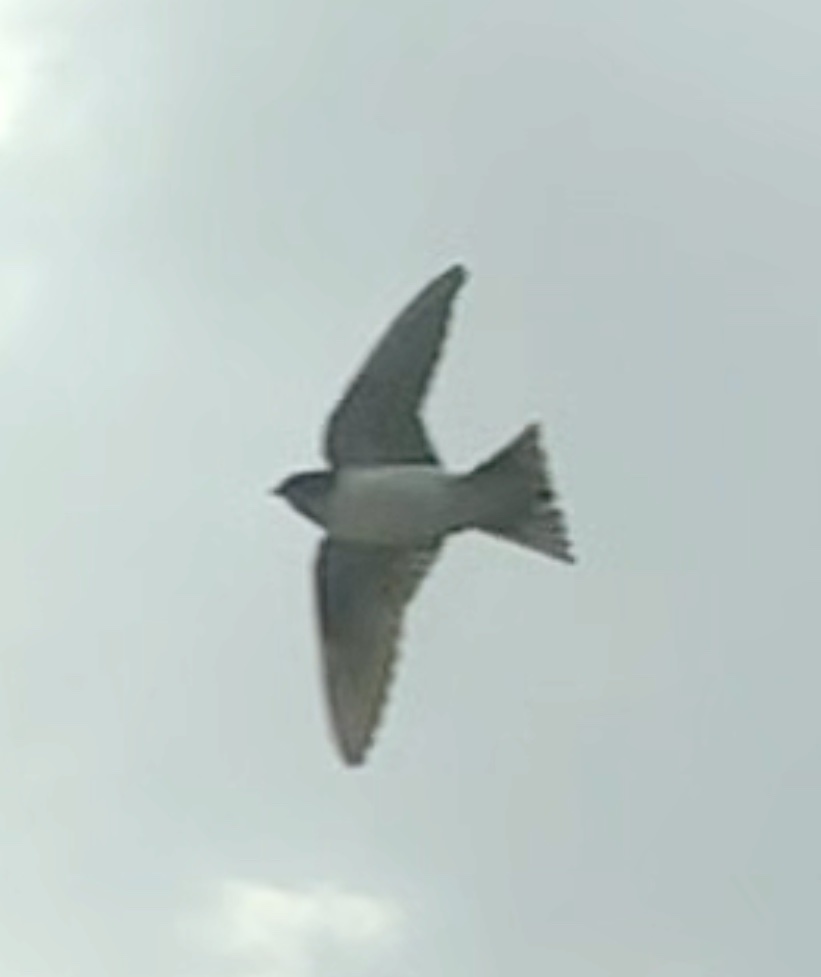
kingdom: Animalia
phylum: Chordata
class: Aves
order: Passeriformes
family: Hirundinidae
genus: Delichon
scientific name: Delichon urbicum
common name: Common house martin
